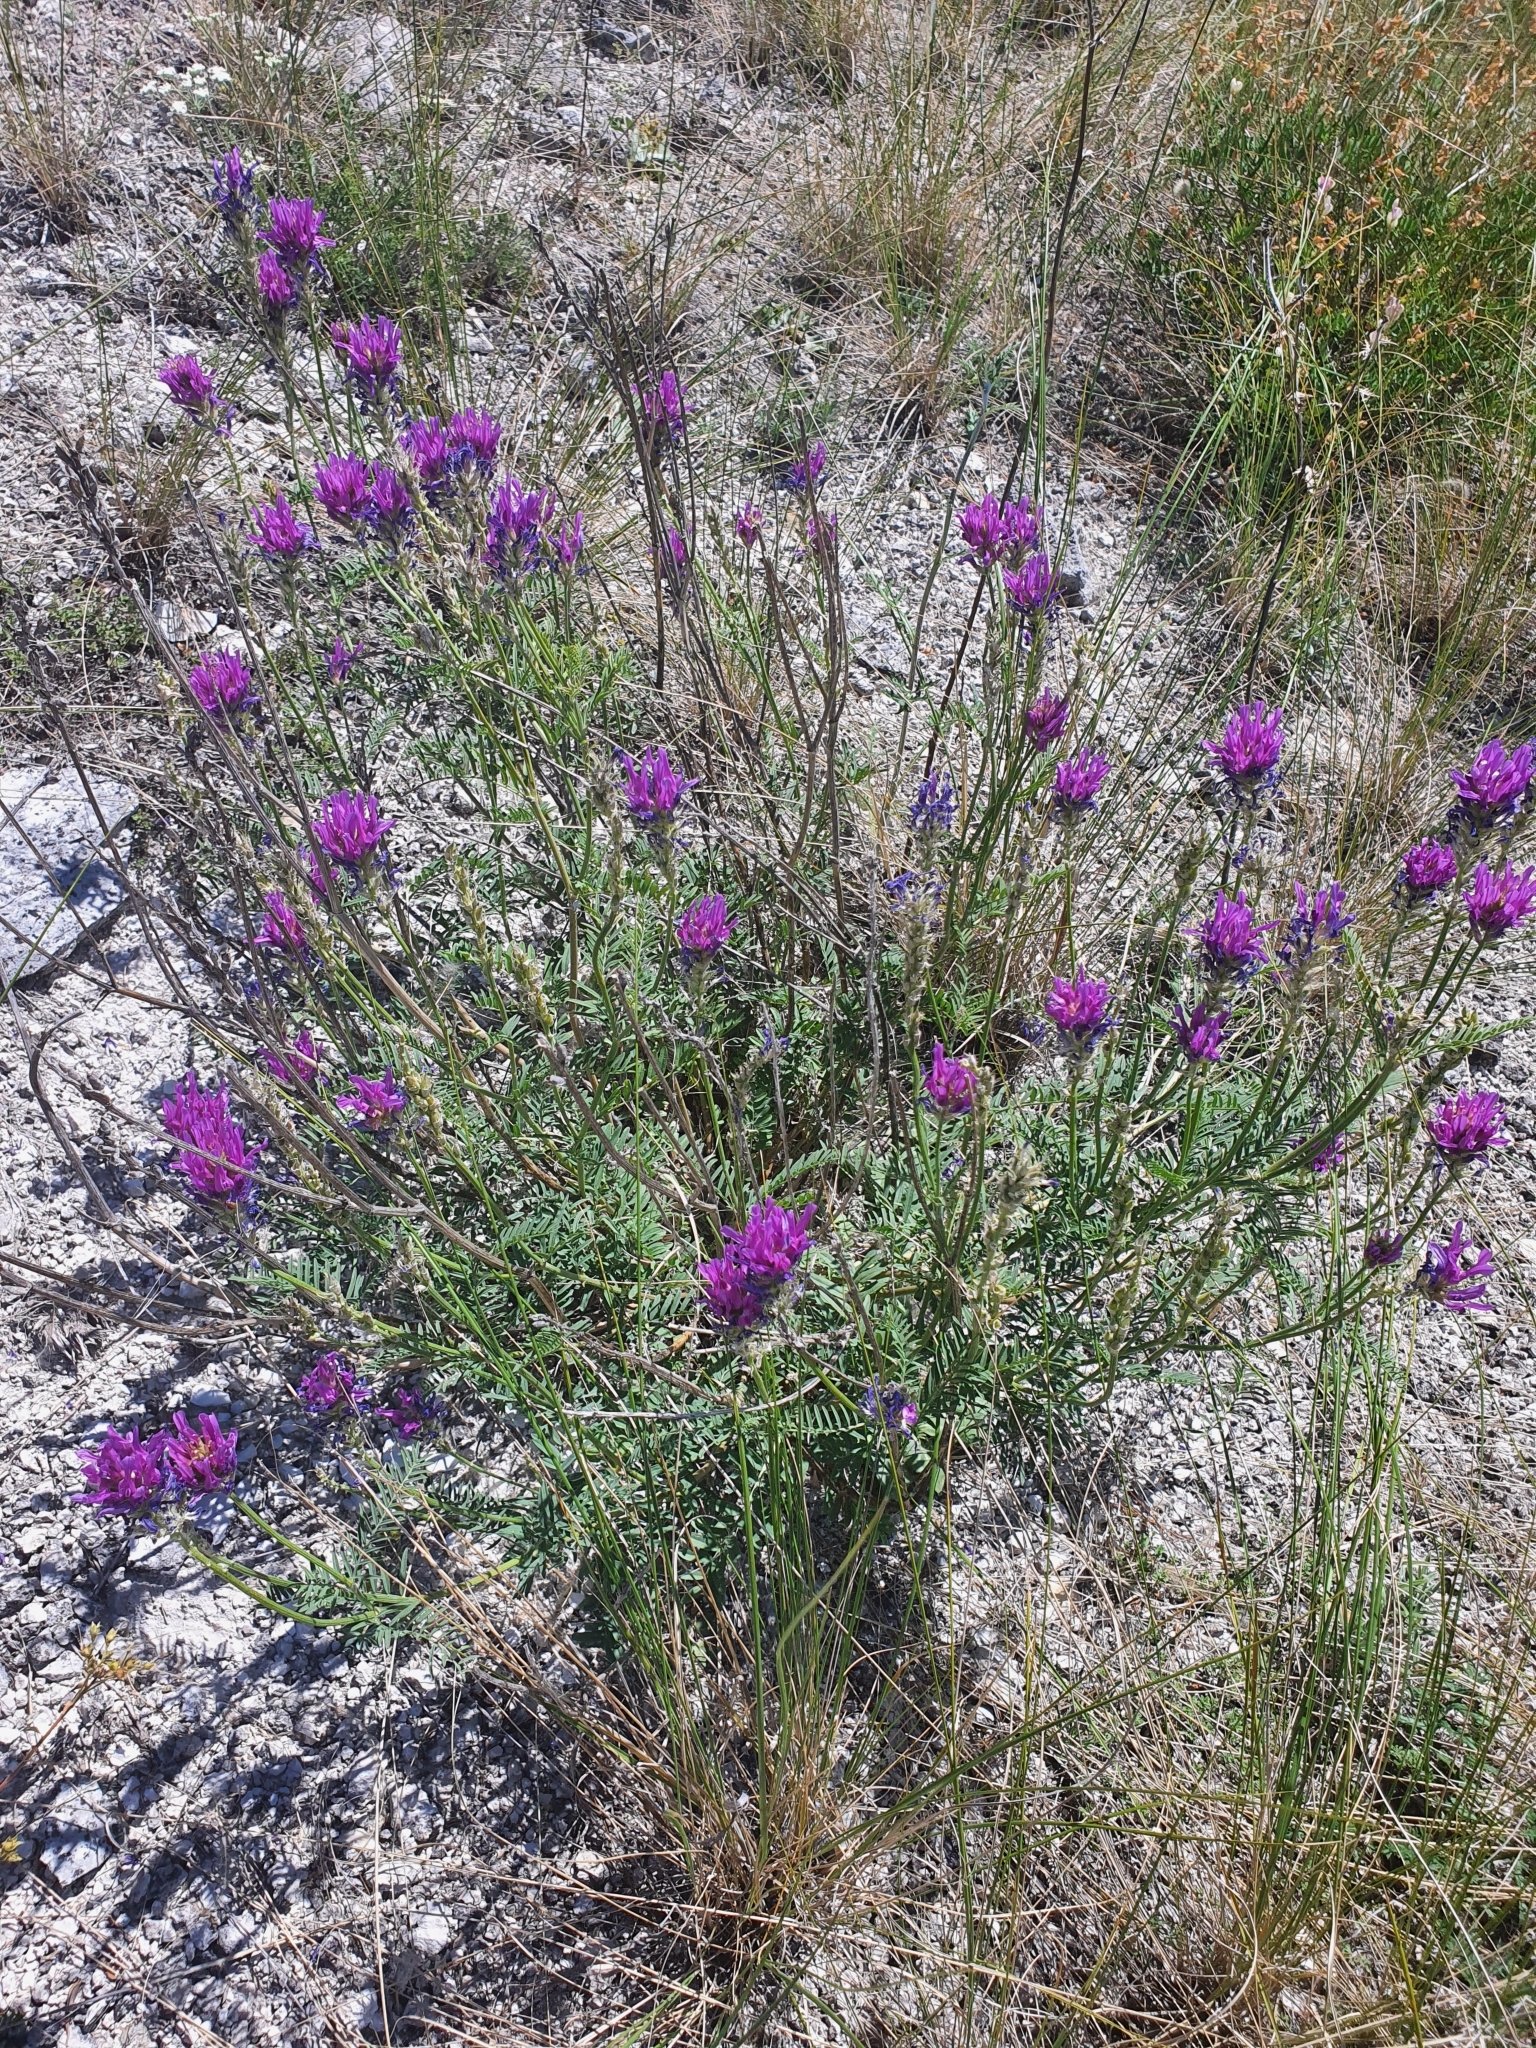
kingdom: Plantae
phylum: Tracheophyta
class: Magnoliopsida
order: Fabales
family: Fabaceae
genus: Astragalus
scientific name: Astragalus onobrychis
